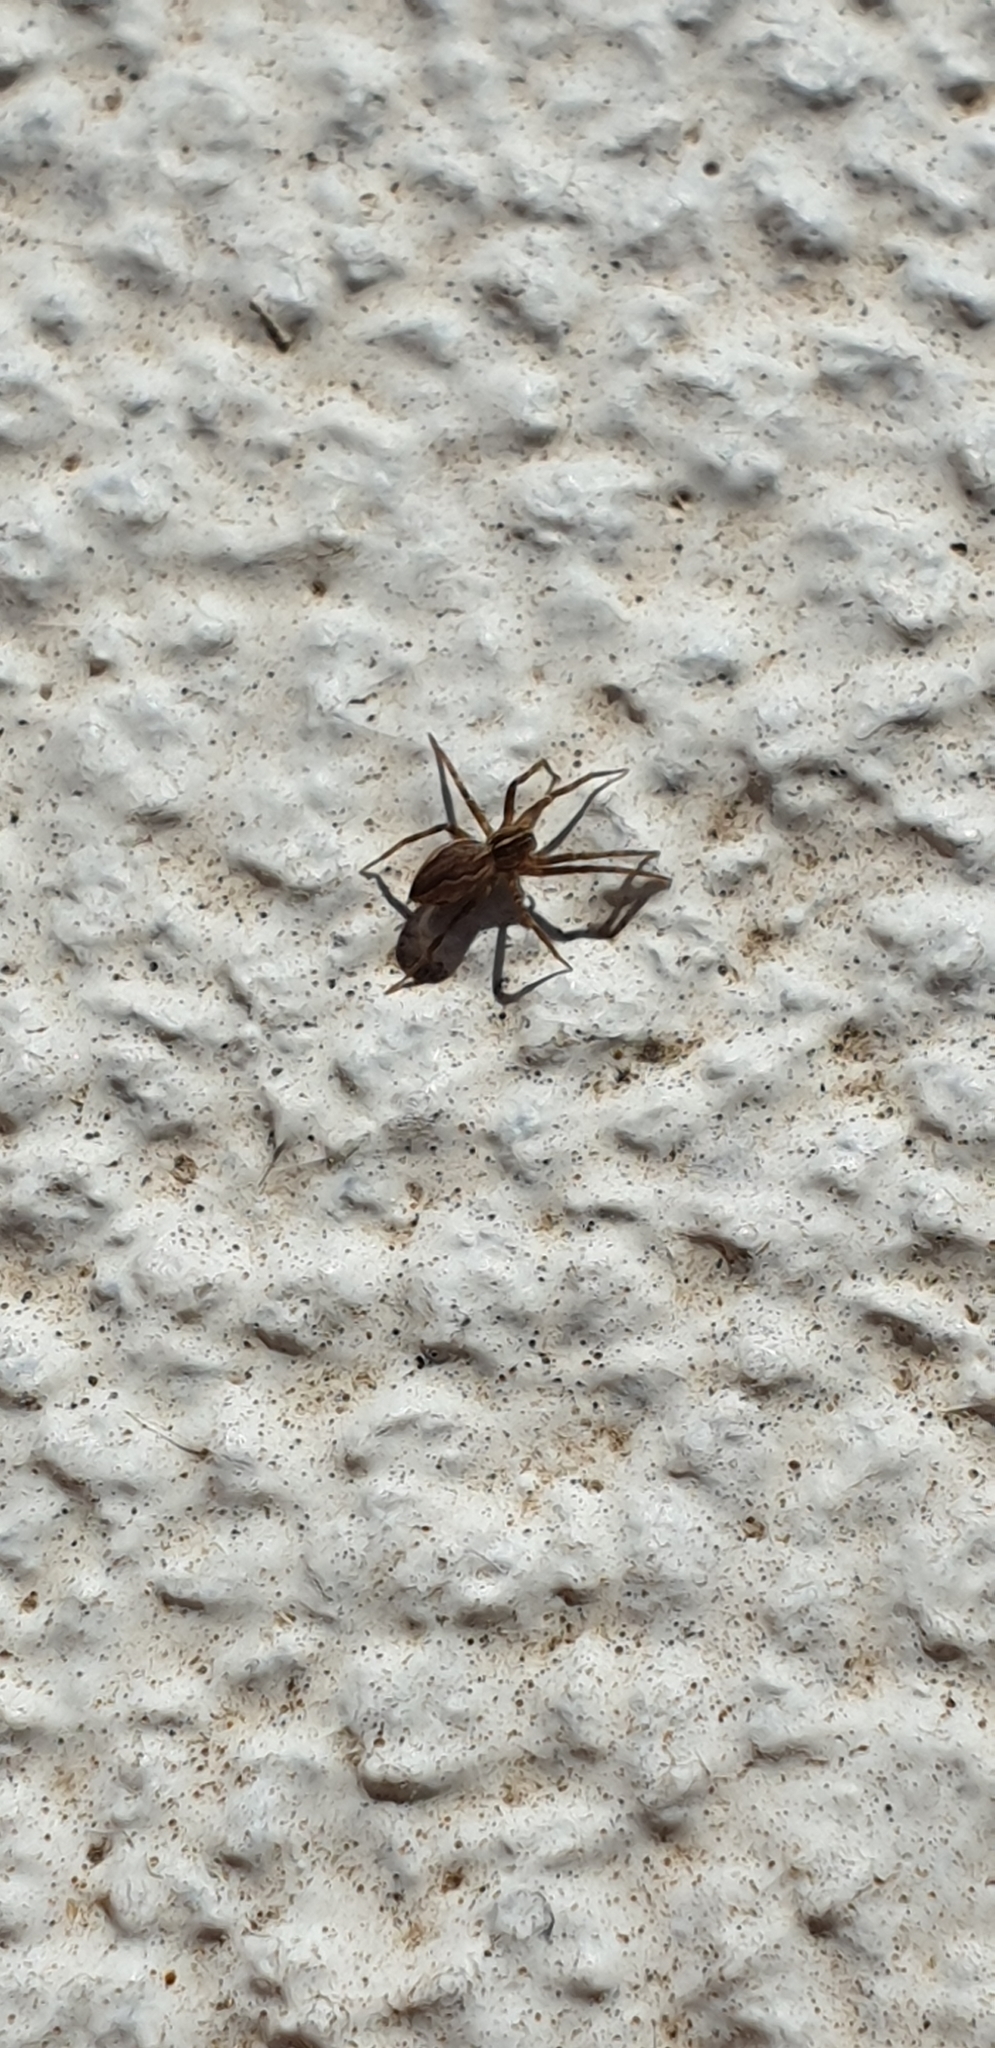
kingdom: Animalia
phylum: Arthropoda
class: Arachnida
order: Araneae
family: Pisauridae
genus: Pisaura
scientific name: Pisaura mirabilis
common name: Tent spider
